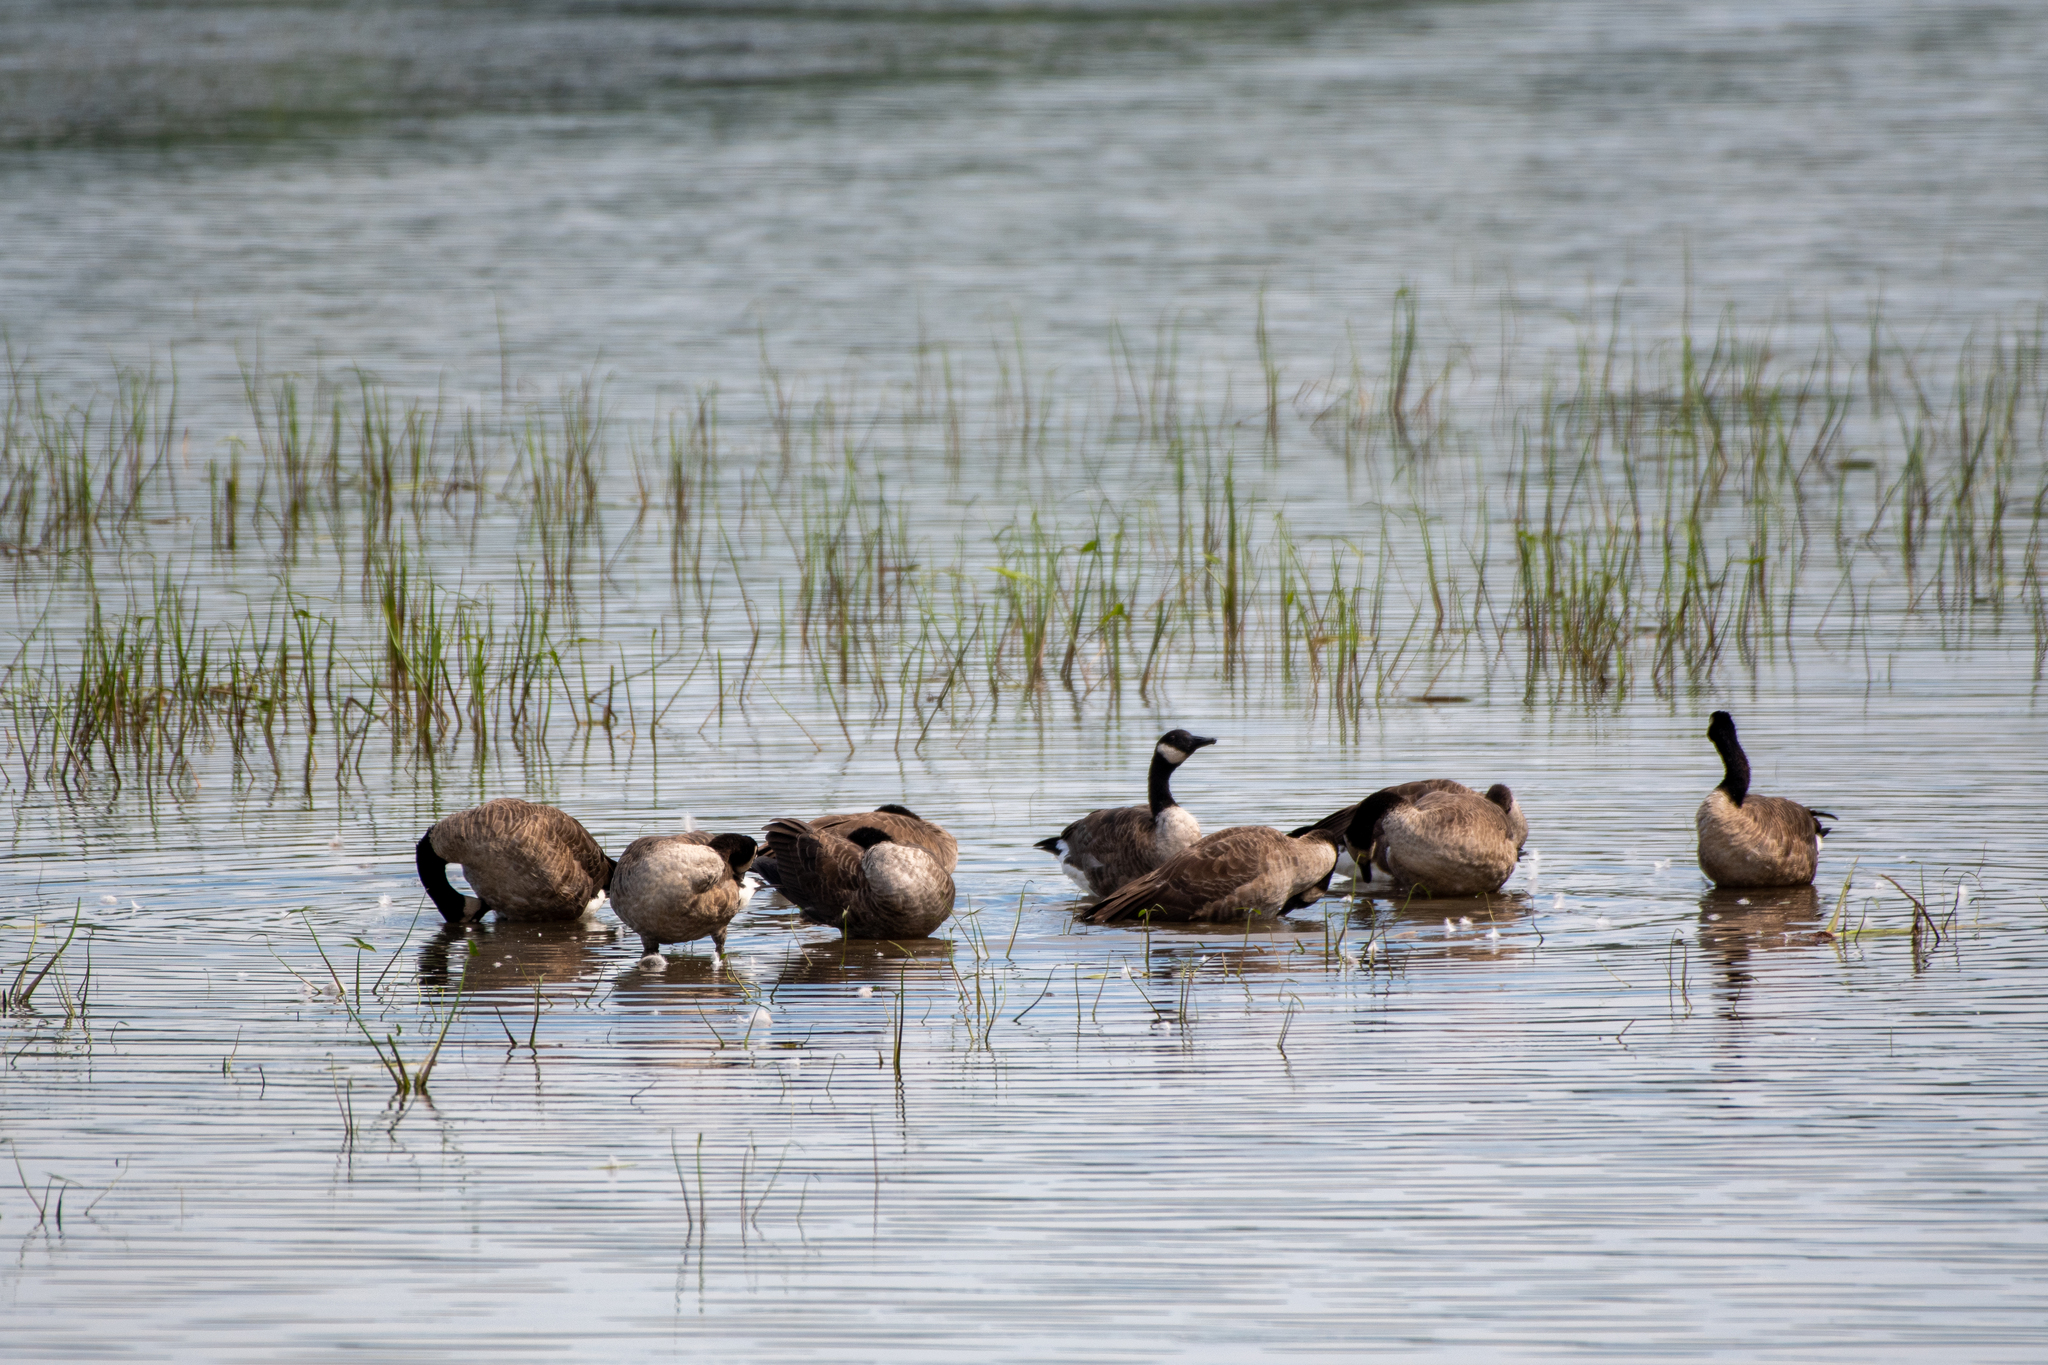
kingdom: Animalia
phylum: Chordata
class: Aves
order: Anseriformes
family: Anatidae
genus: Branta
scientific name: Branta canadensis
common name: Canada goose
